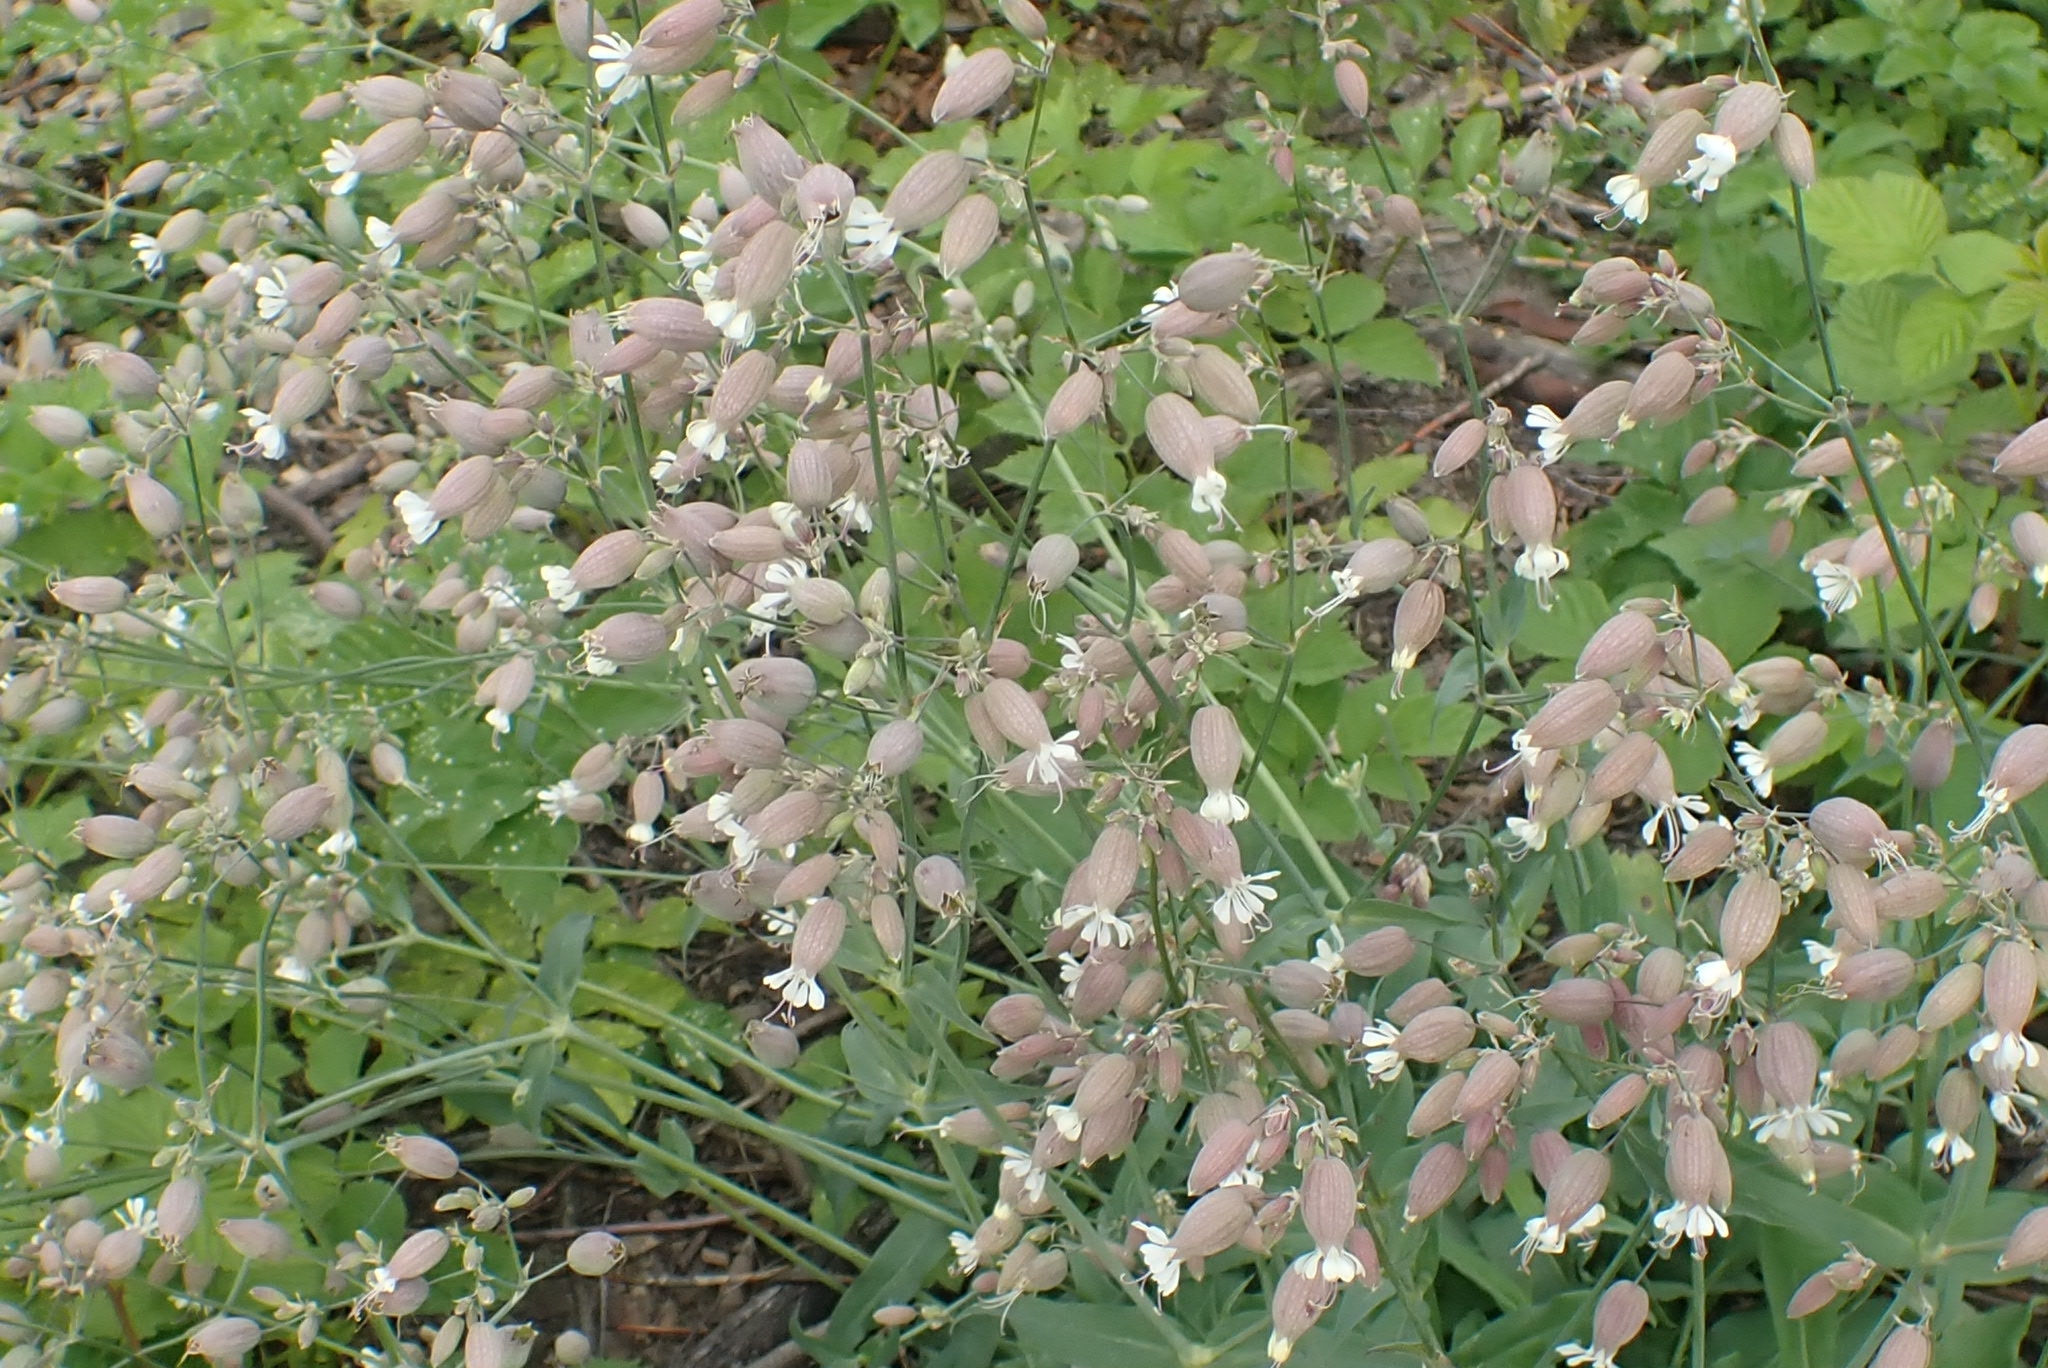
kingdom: Plantae
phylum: Tracheophyta
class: Magnoliopsida
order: Caryophyllales
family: Caryophyllaceae
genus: Silene
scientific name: Silene vulgaris
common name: Bladder campion
